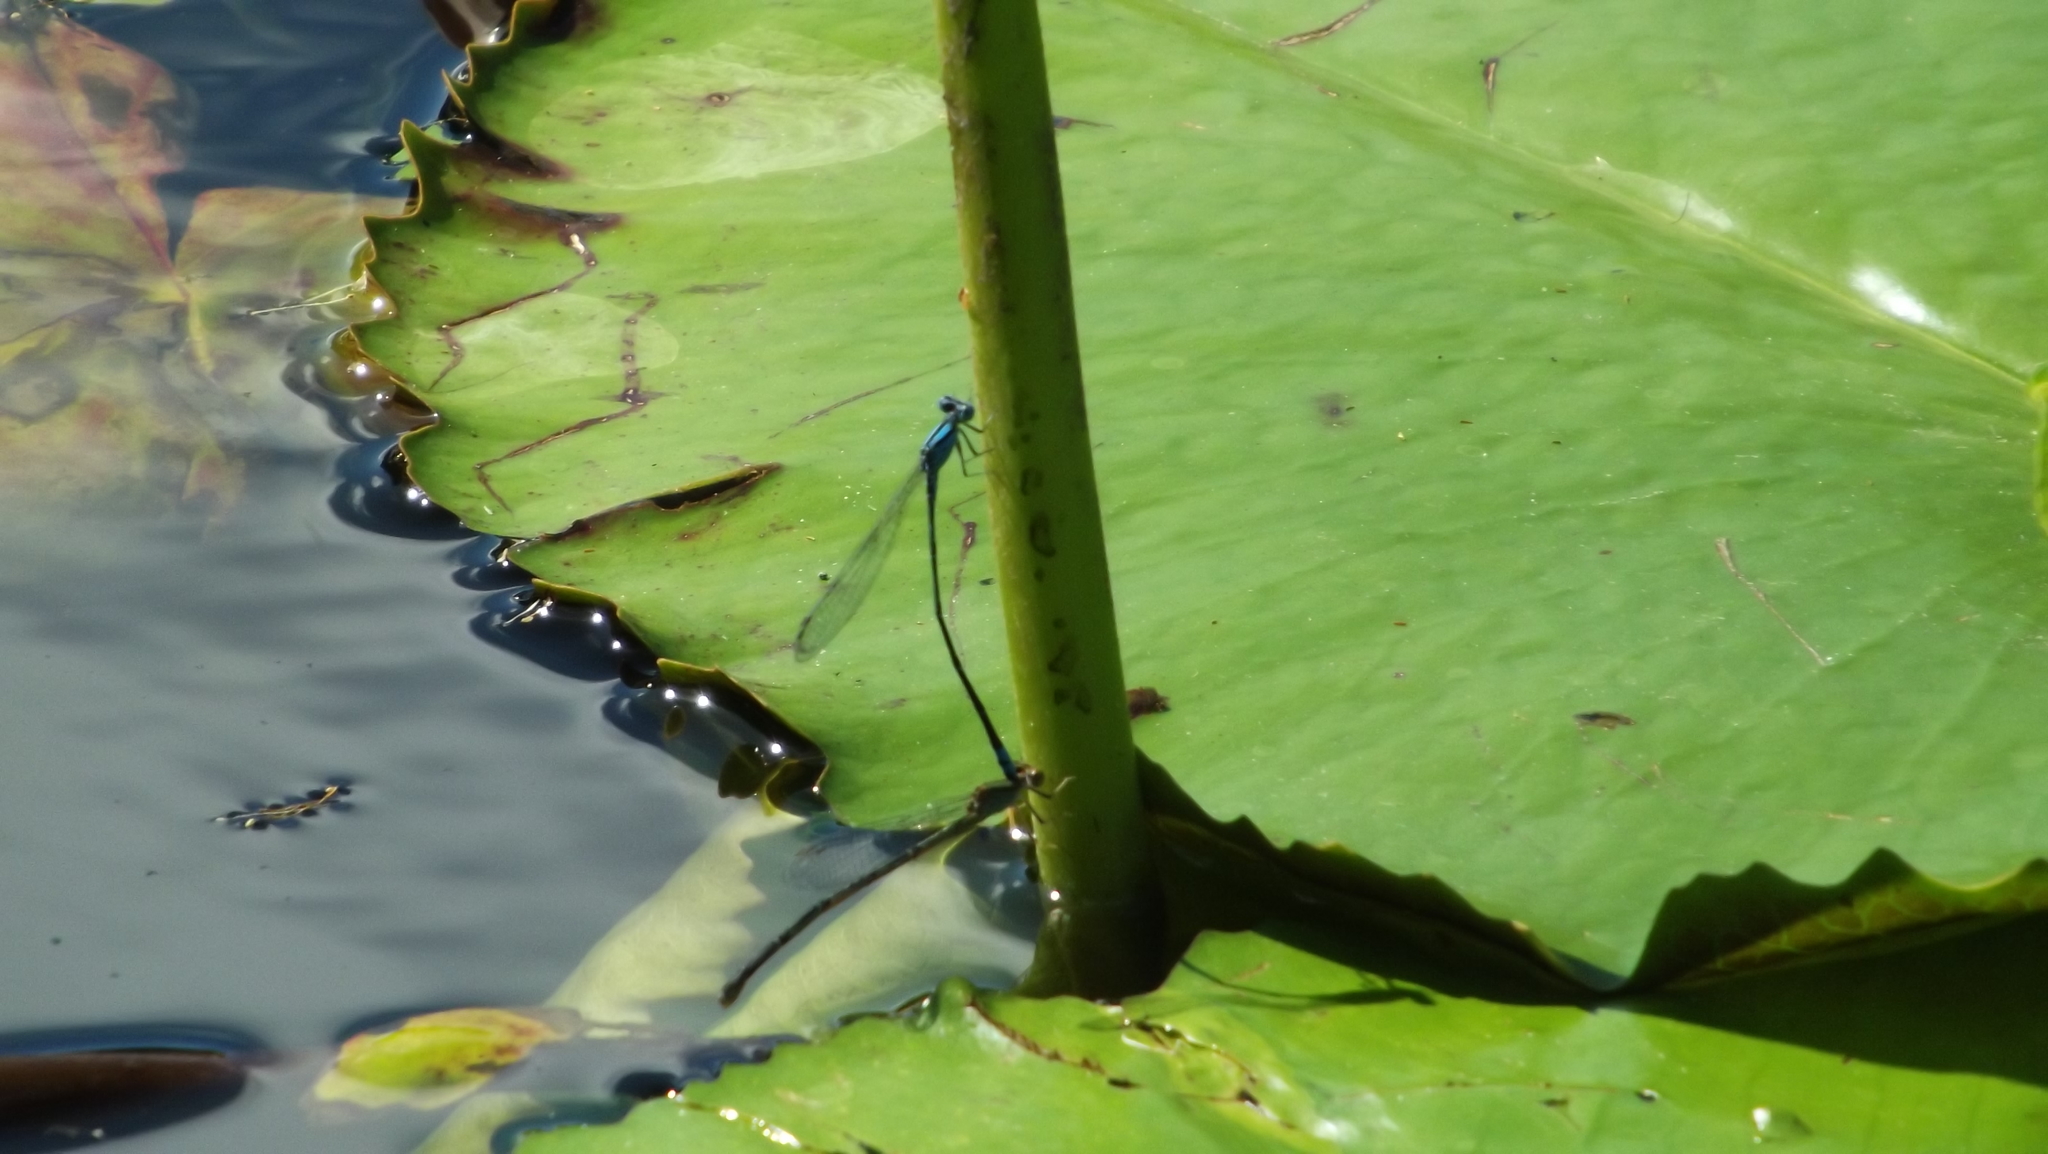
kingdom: Animalia
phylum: Arthropoda
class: Insecta
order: Odonata
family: Coenagrionidae
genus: Pseudagrion
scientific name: Pseudagrion microcephalum
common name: Blue riverdamsel
